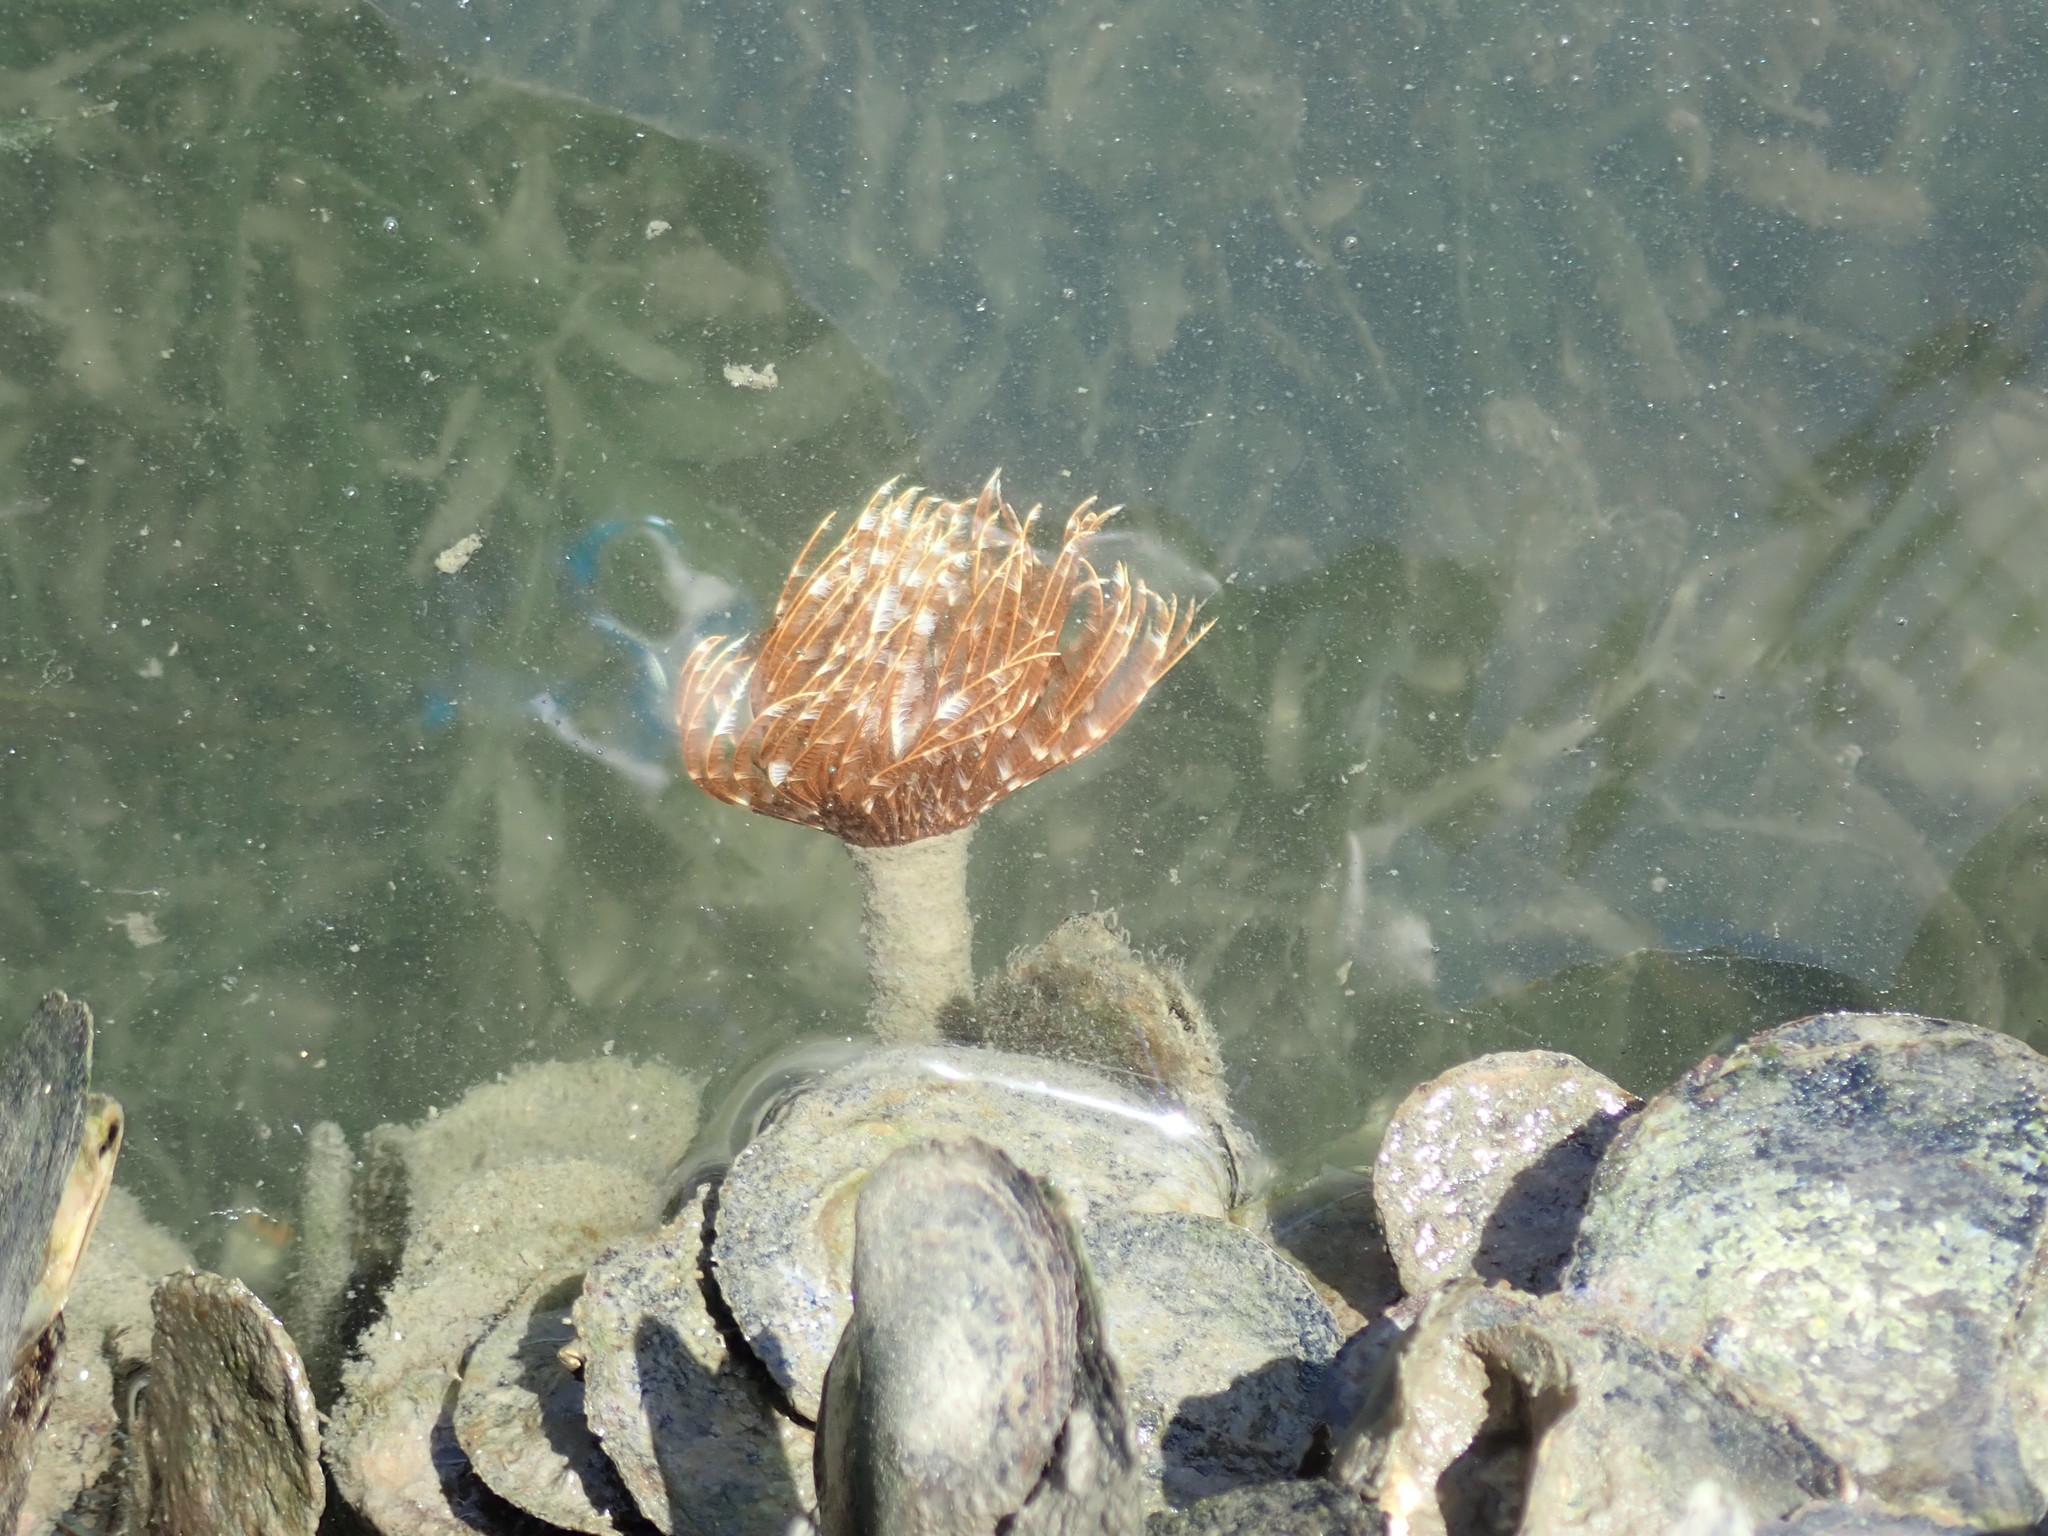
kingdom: Animalia
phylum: Annelida
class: Polychaeta
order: Sabellida
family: Sabellidae
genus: Sabellastarte
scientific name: Sabellastarte magnifica
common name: Giant feather-duster worm
